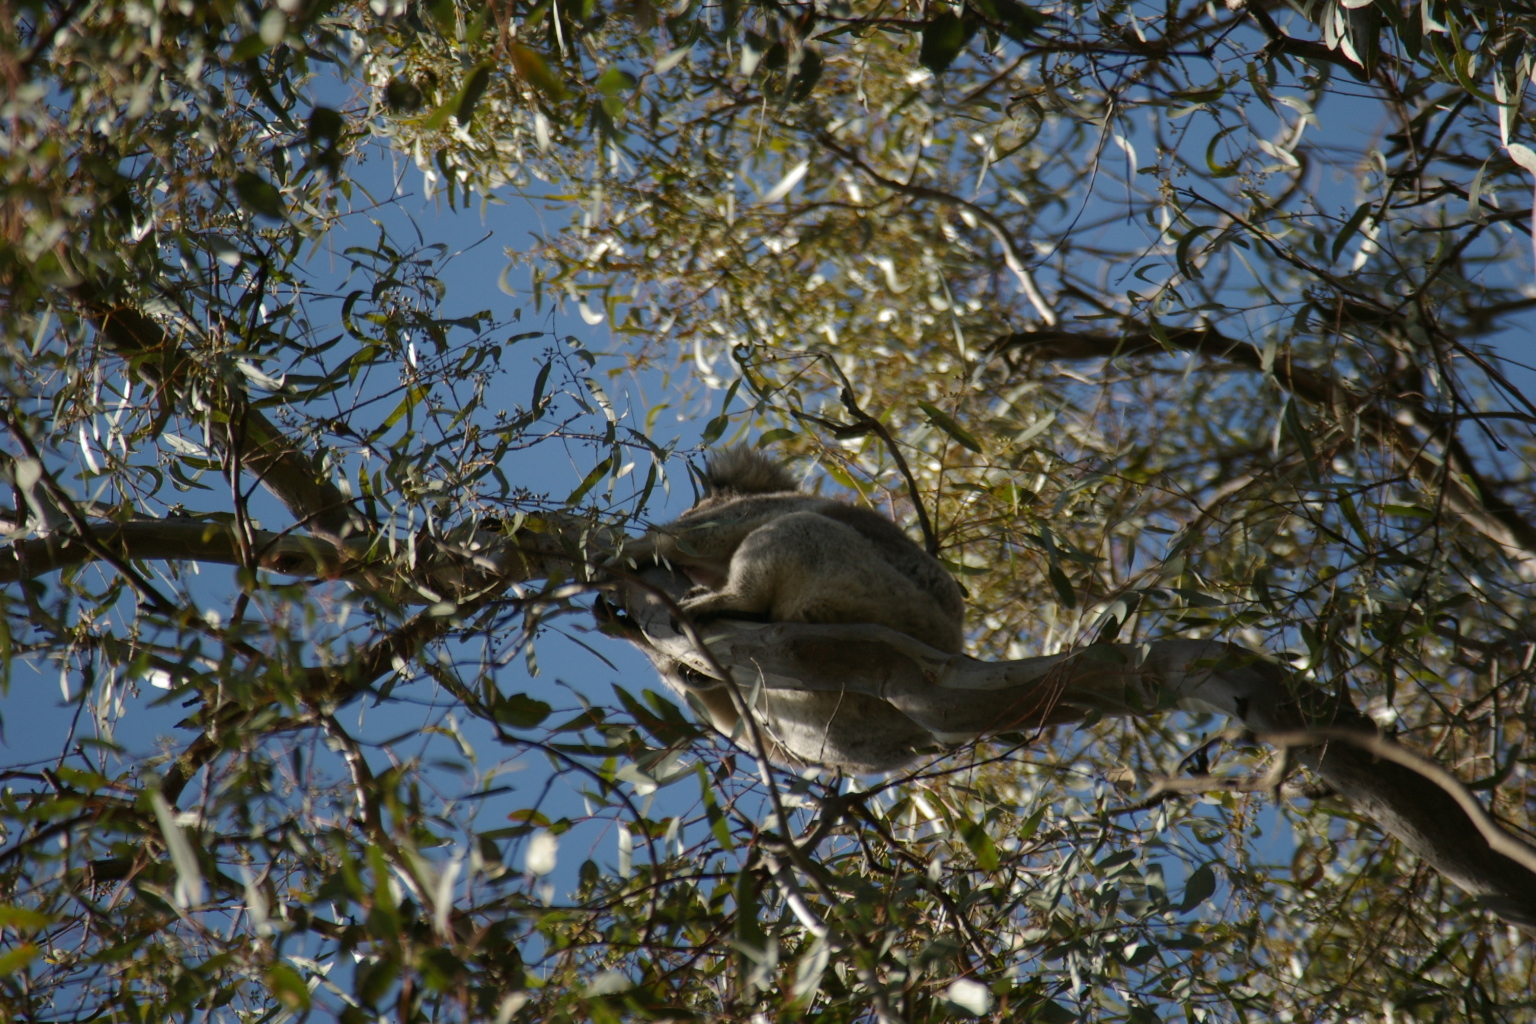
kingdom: Animalia
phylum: Chordata
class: Mammalia
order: Diprotodontia
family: Phascolarctidae
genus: Phascolarctos
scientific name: Phascolarctos cinereus
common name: Koala
